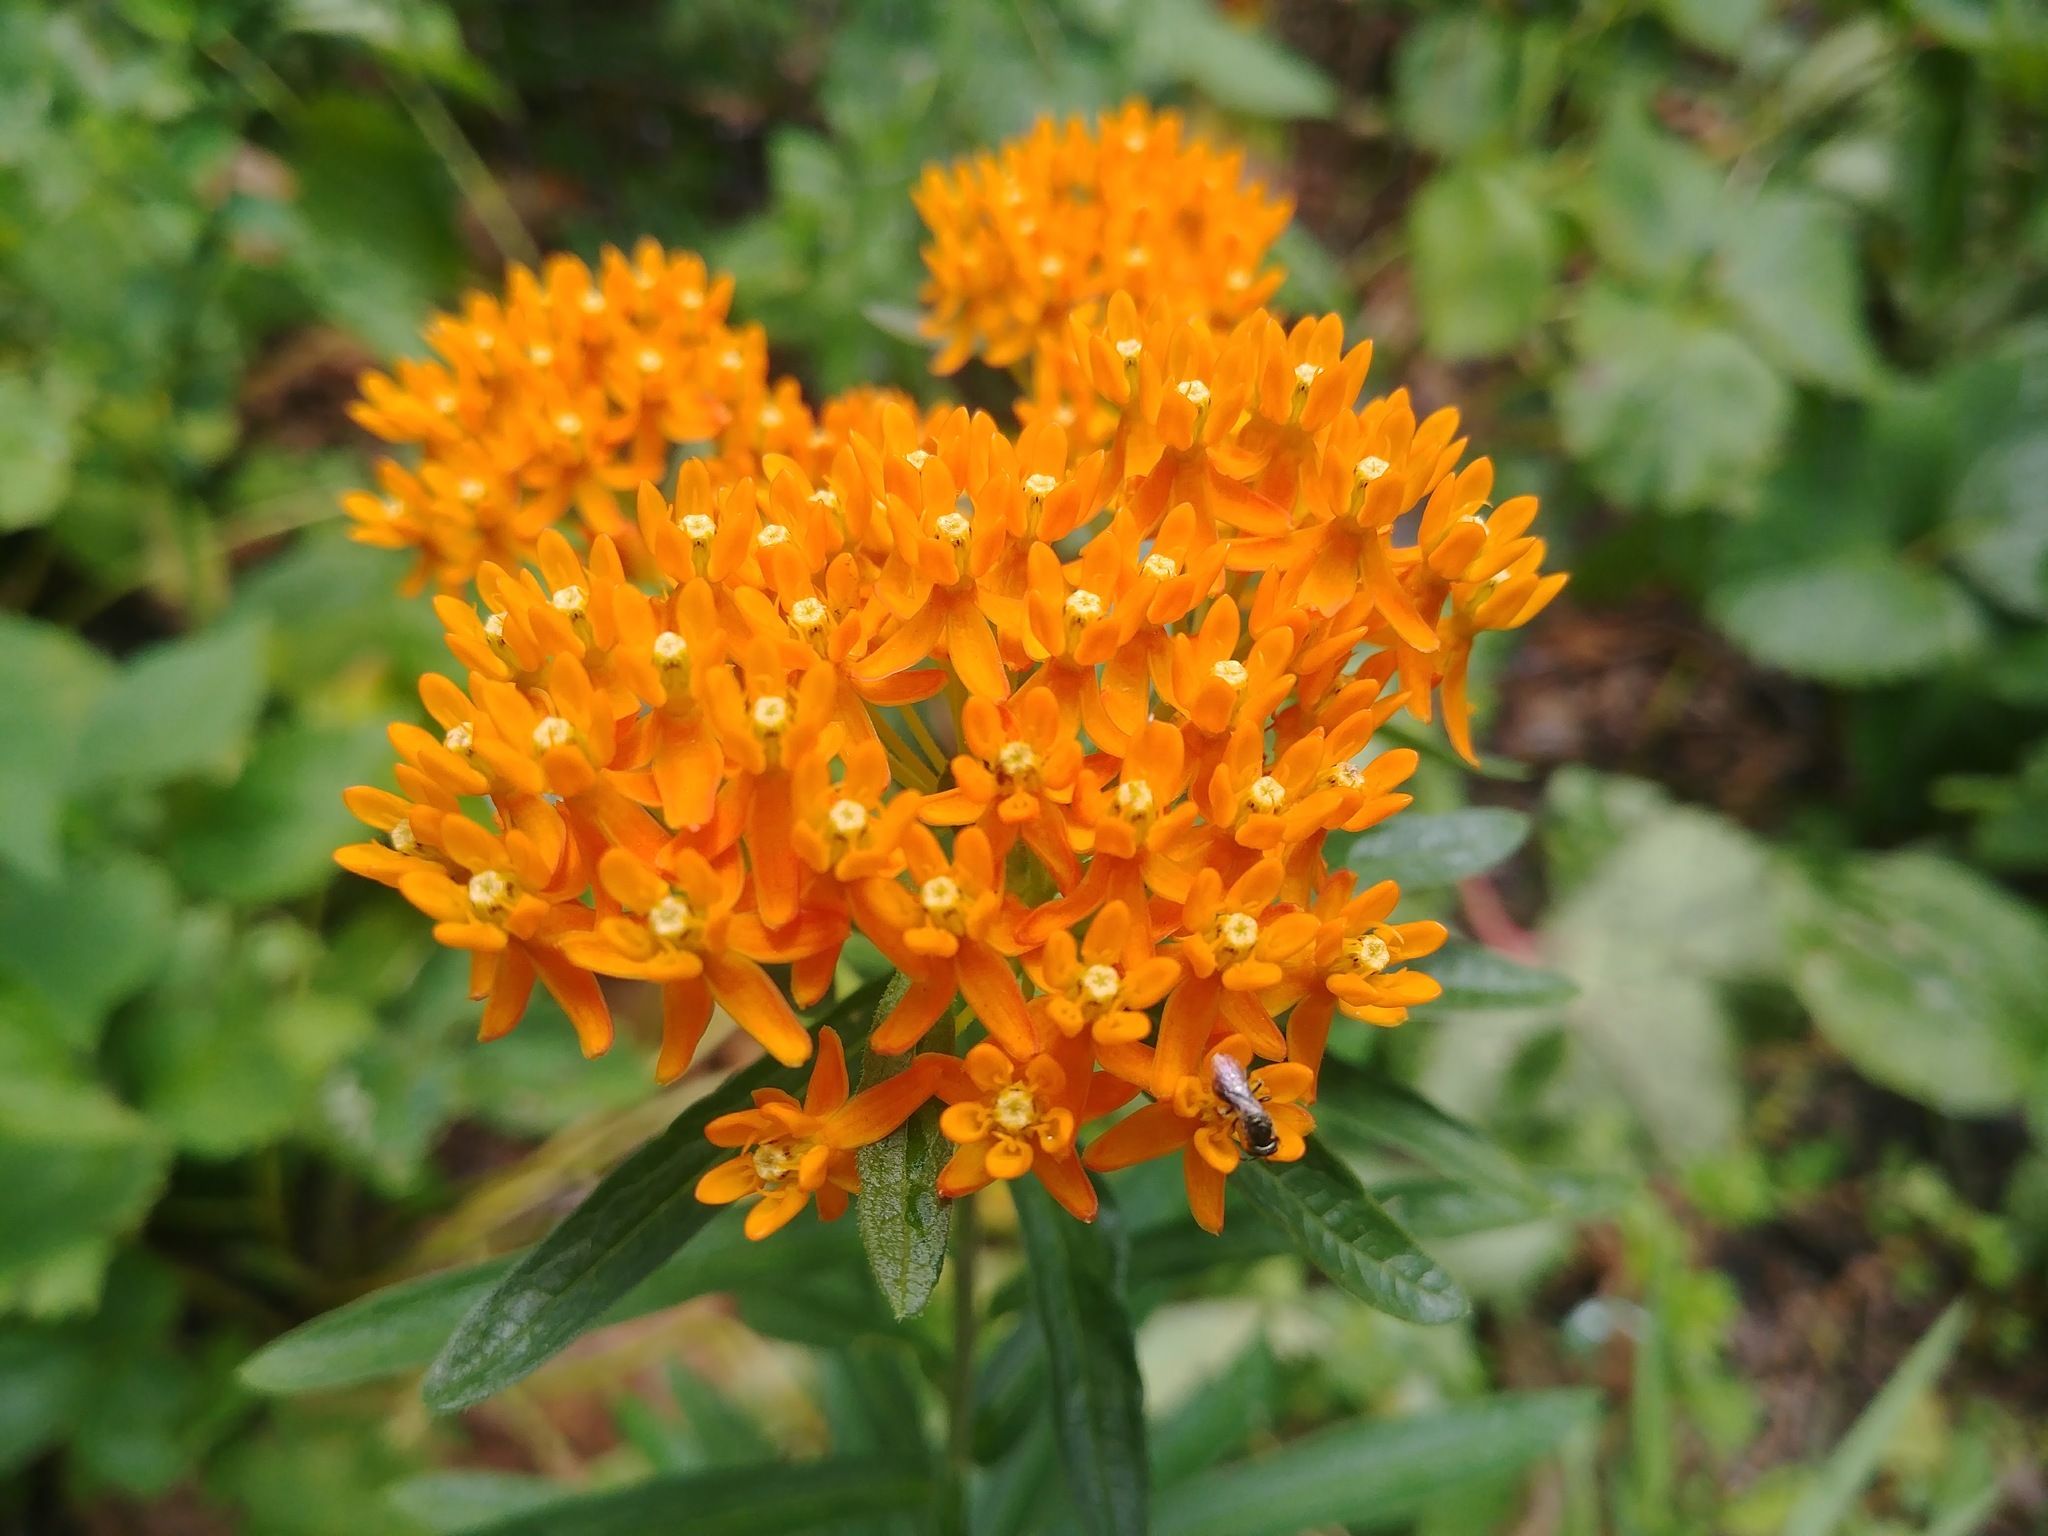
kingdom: Plantae
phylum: Tracheophyta
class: Magnoliopsida
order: Gentianales
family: Apocynaceae
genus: Asclepias
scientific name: Asclepias tuberosa
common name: Butterfly milkweed
